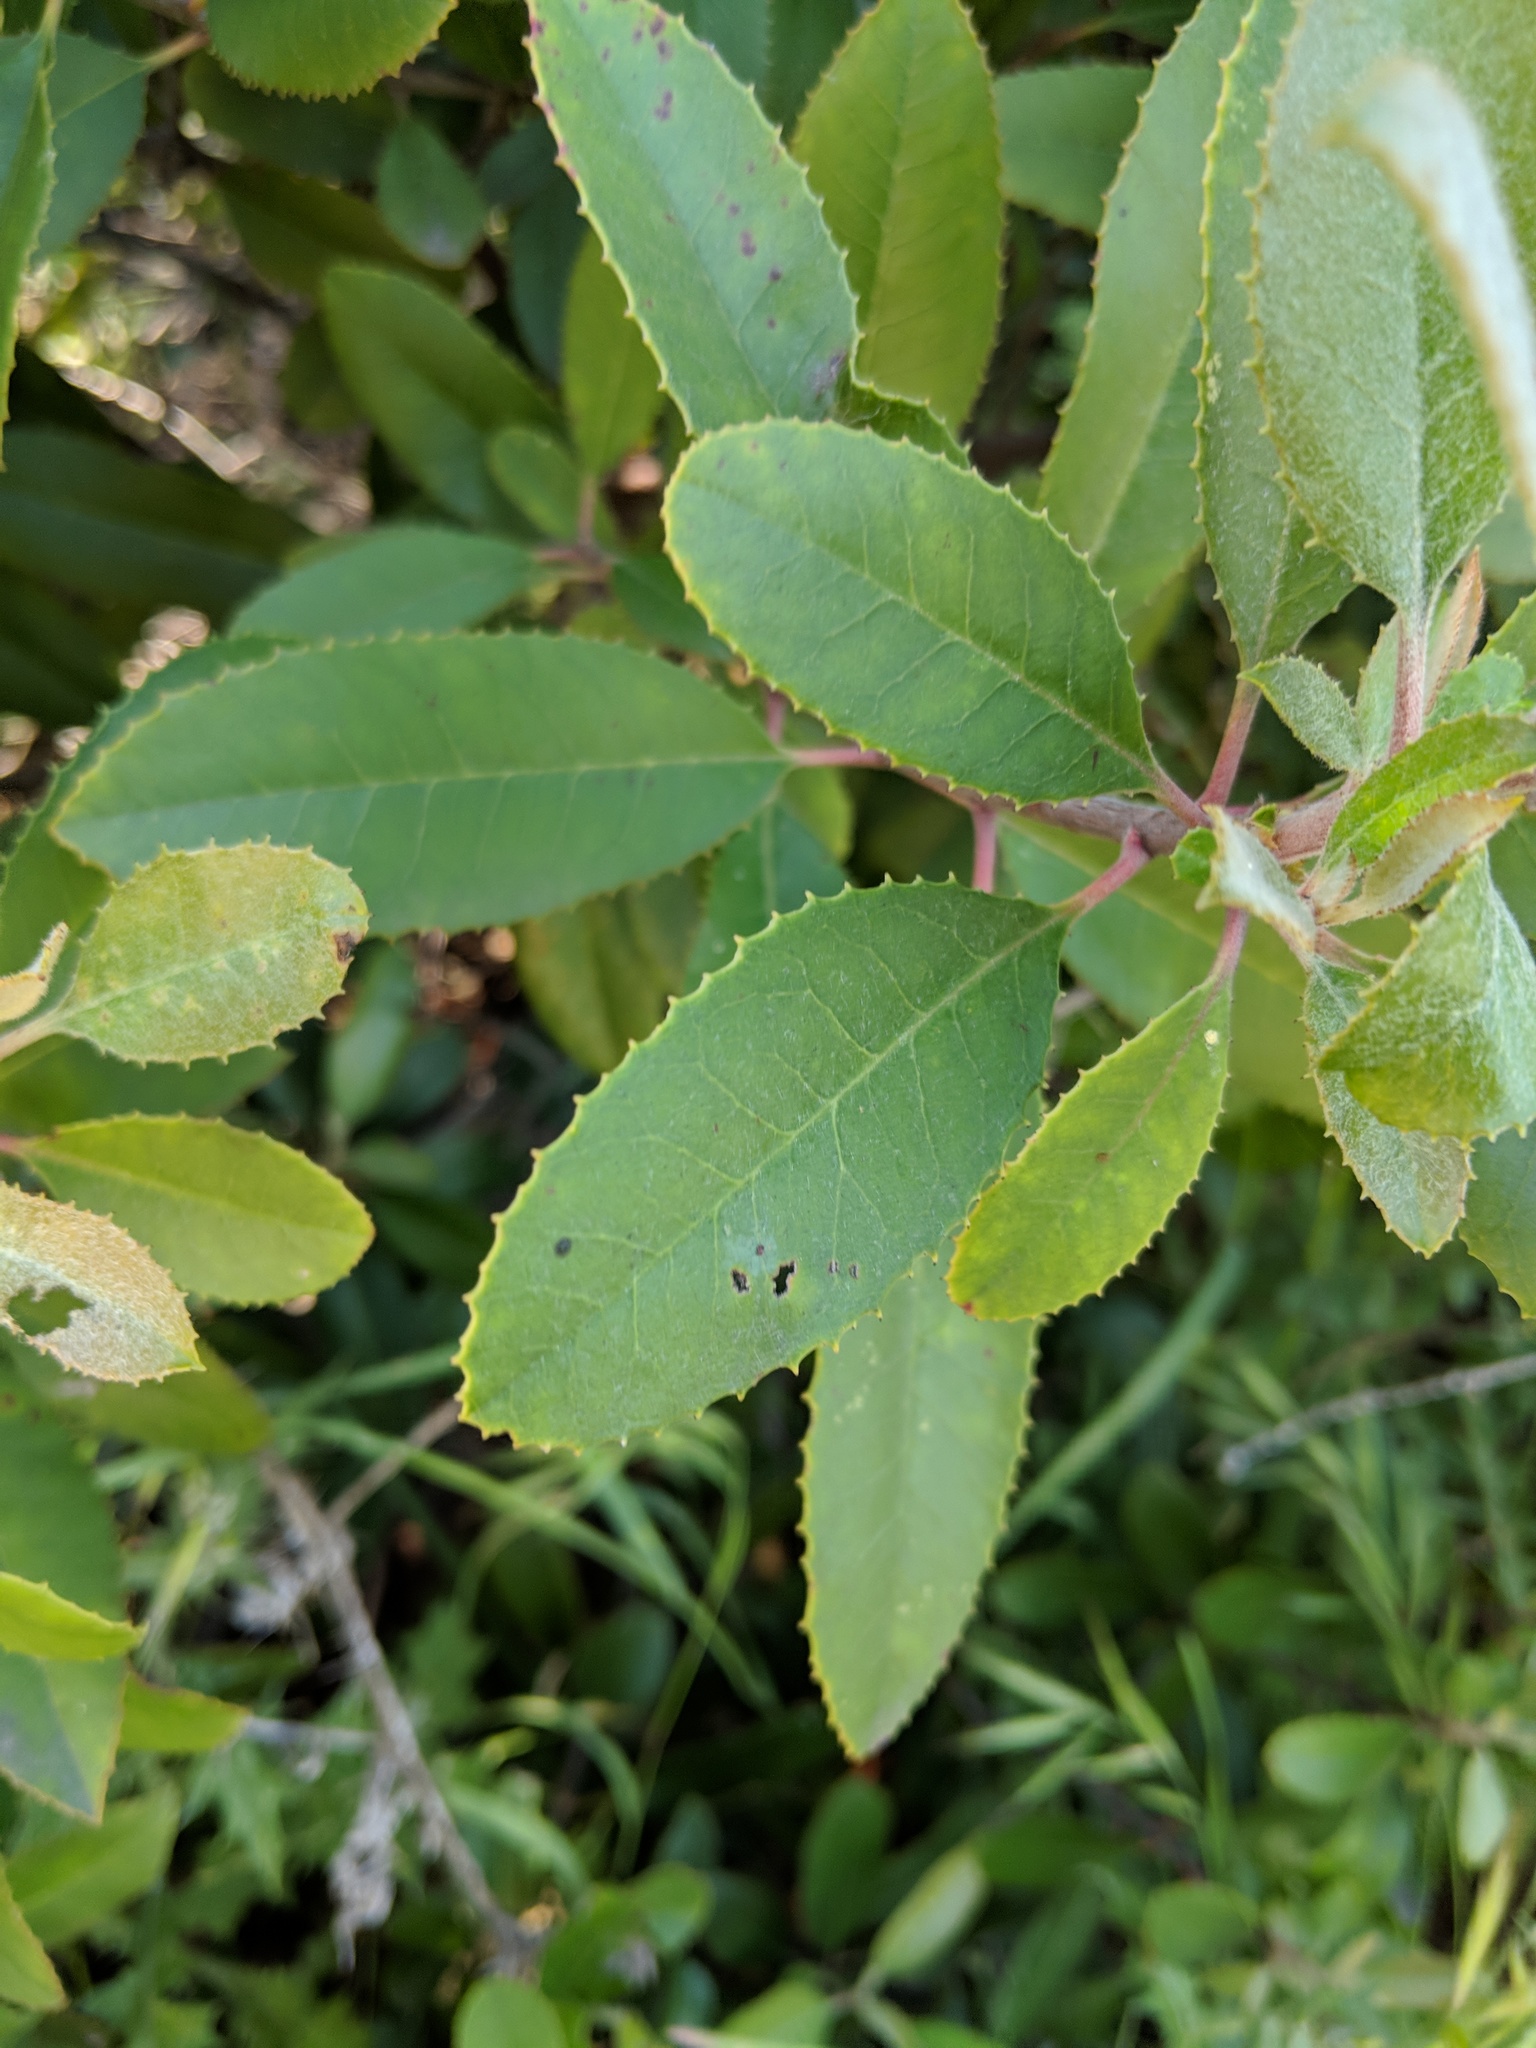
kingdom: Plantae
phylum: Tracheophyta
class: Magnoliopsida
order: Rosales
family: Rosaceae
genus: Heteromeles
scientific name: Heteromeles arbutifolia
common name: California-holly
